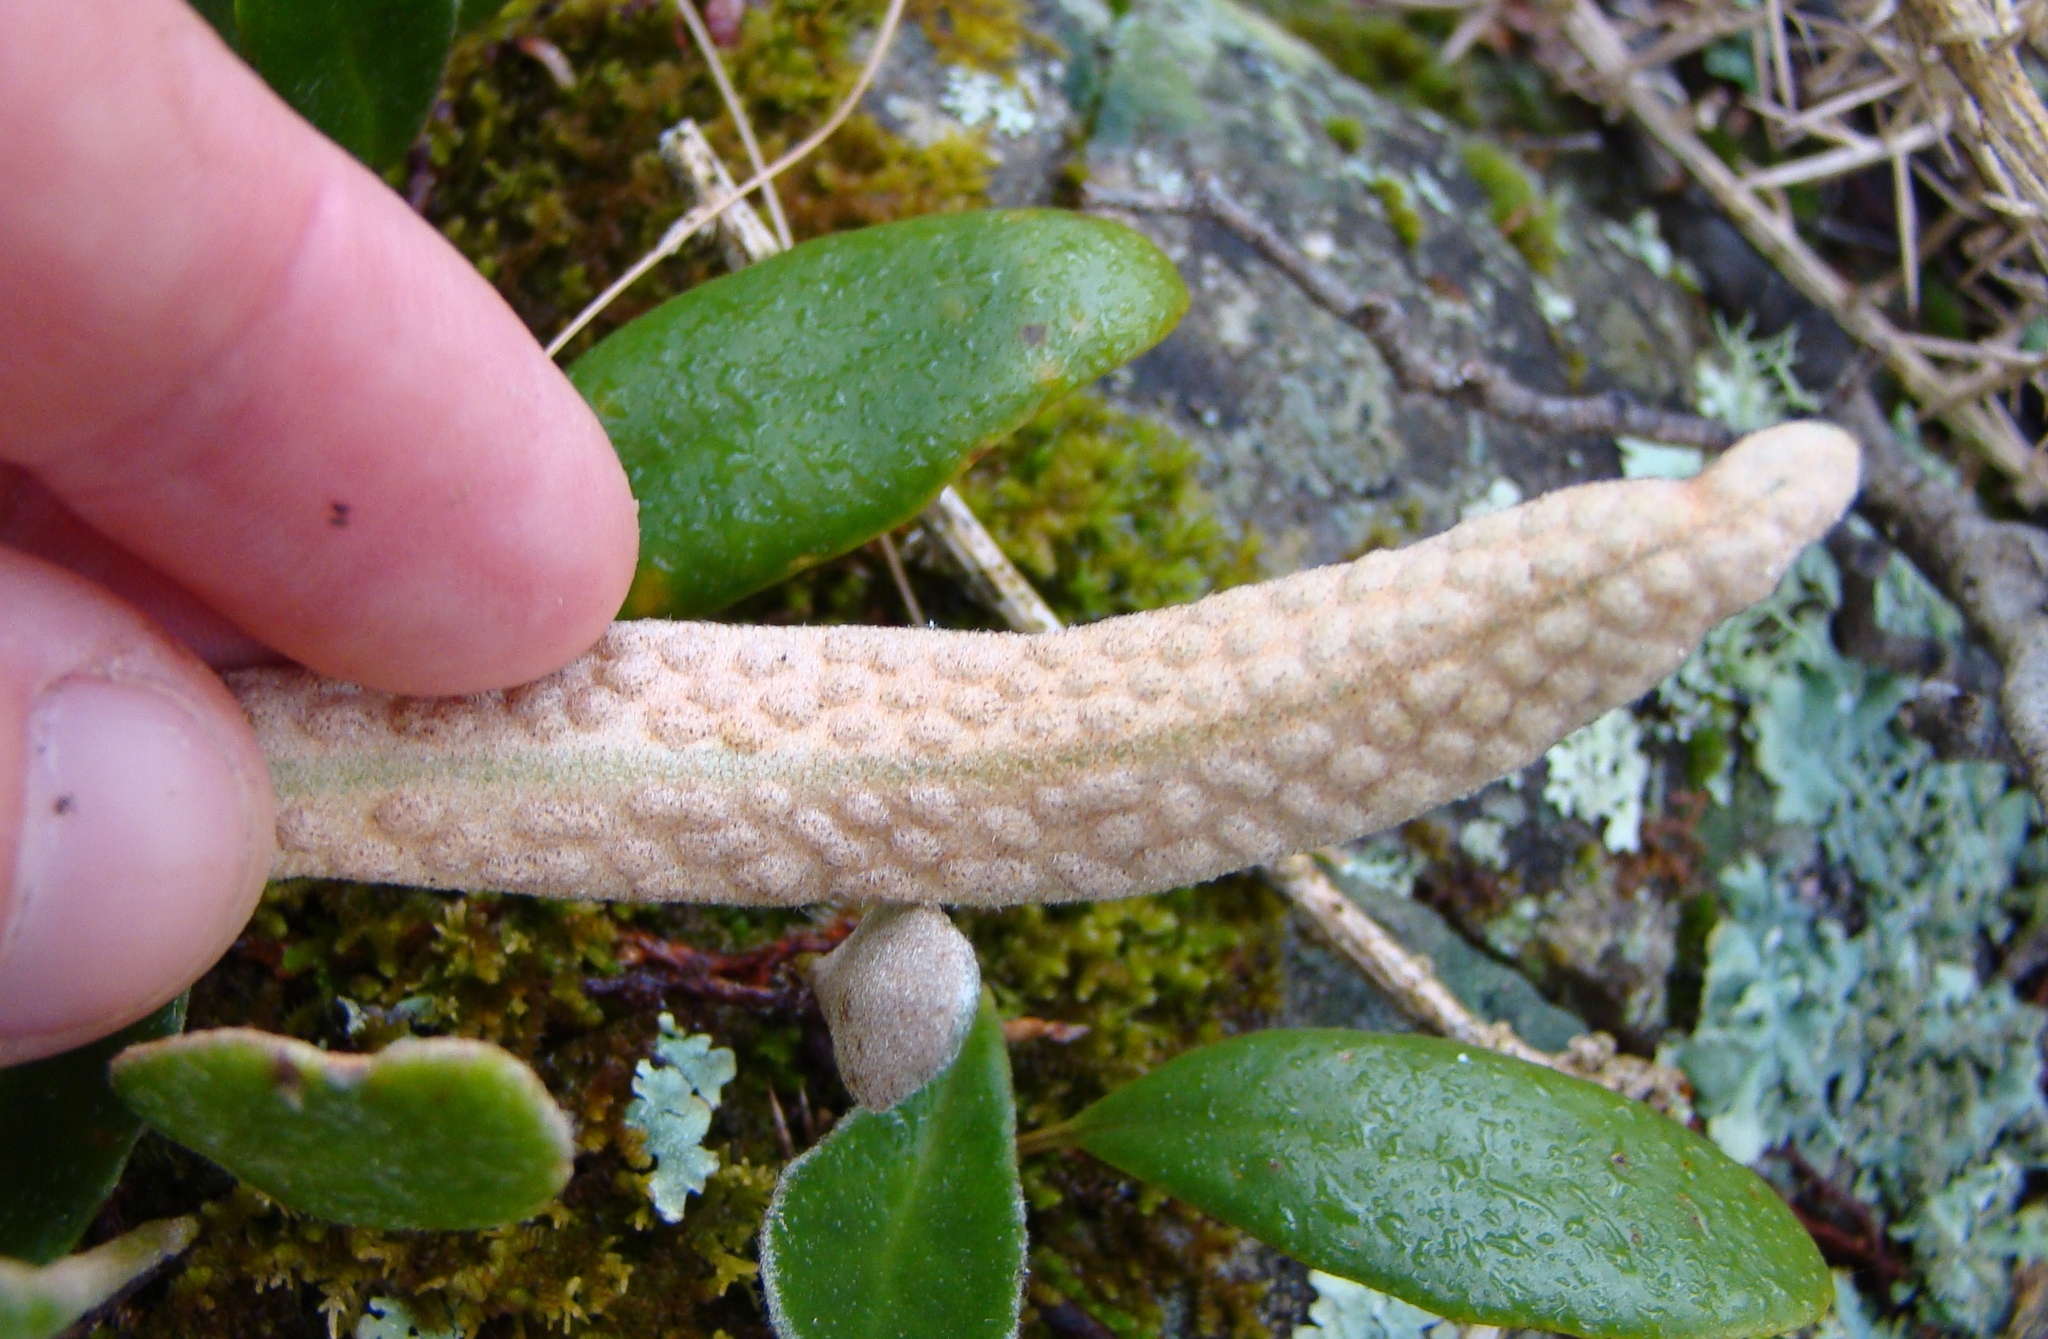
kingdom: Plantae
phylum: Tracheophyta
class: Polypodiopsida
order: Polypodiales
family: Polypodiaceae
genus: Pyrrosia
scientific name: Pyrrosia eleagnifolia
